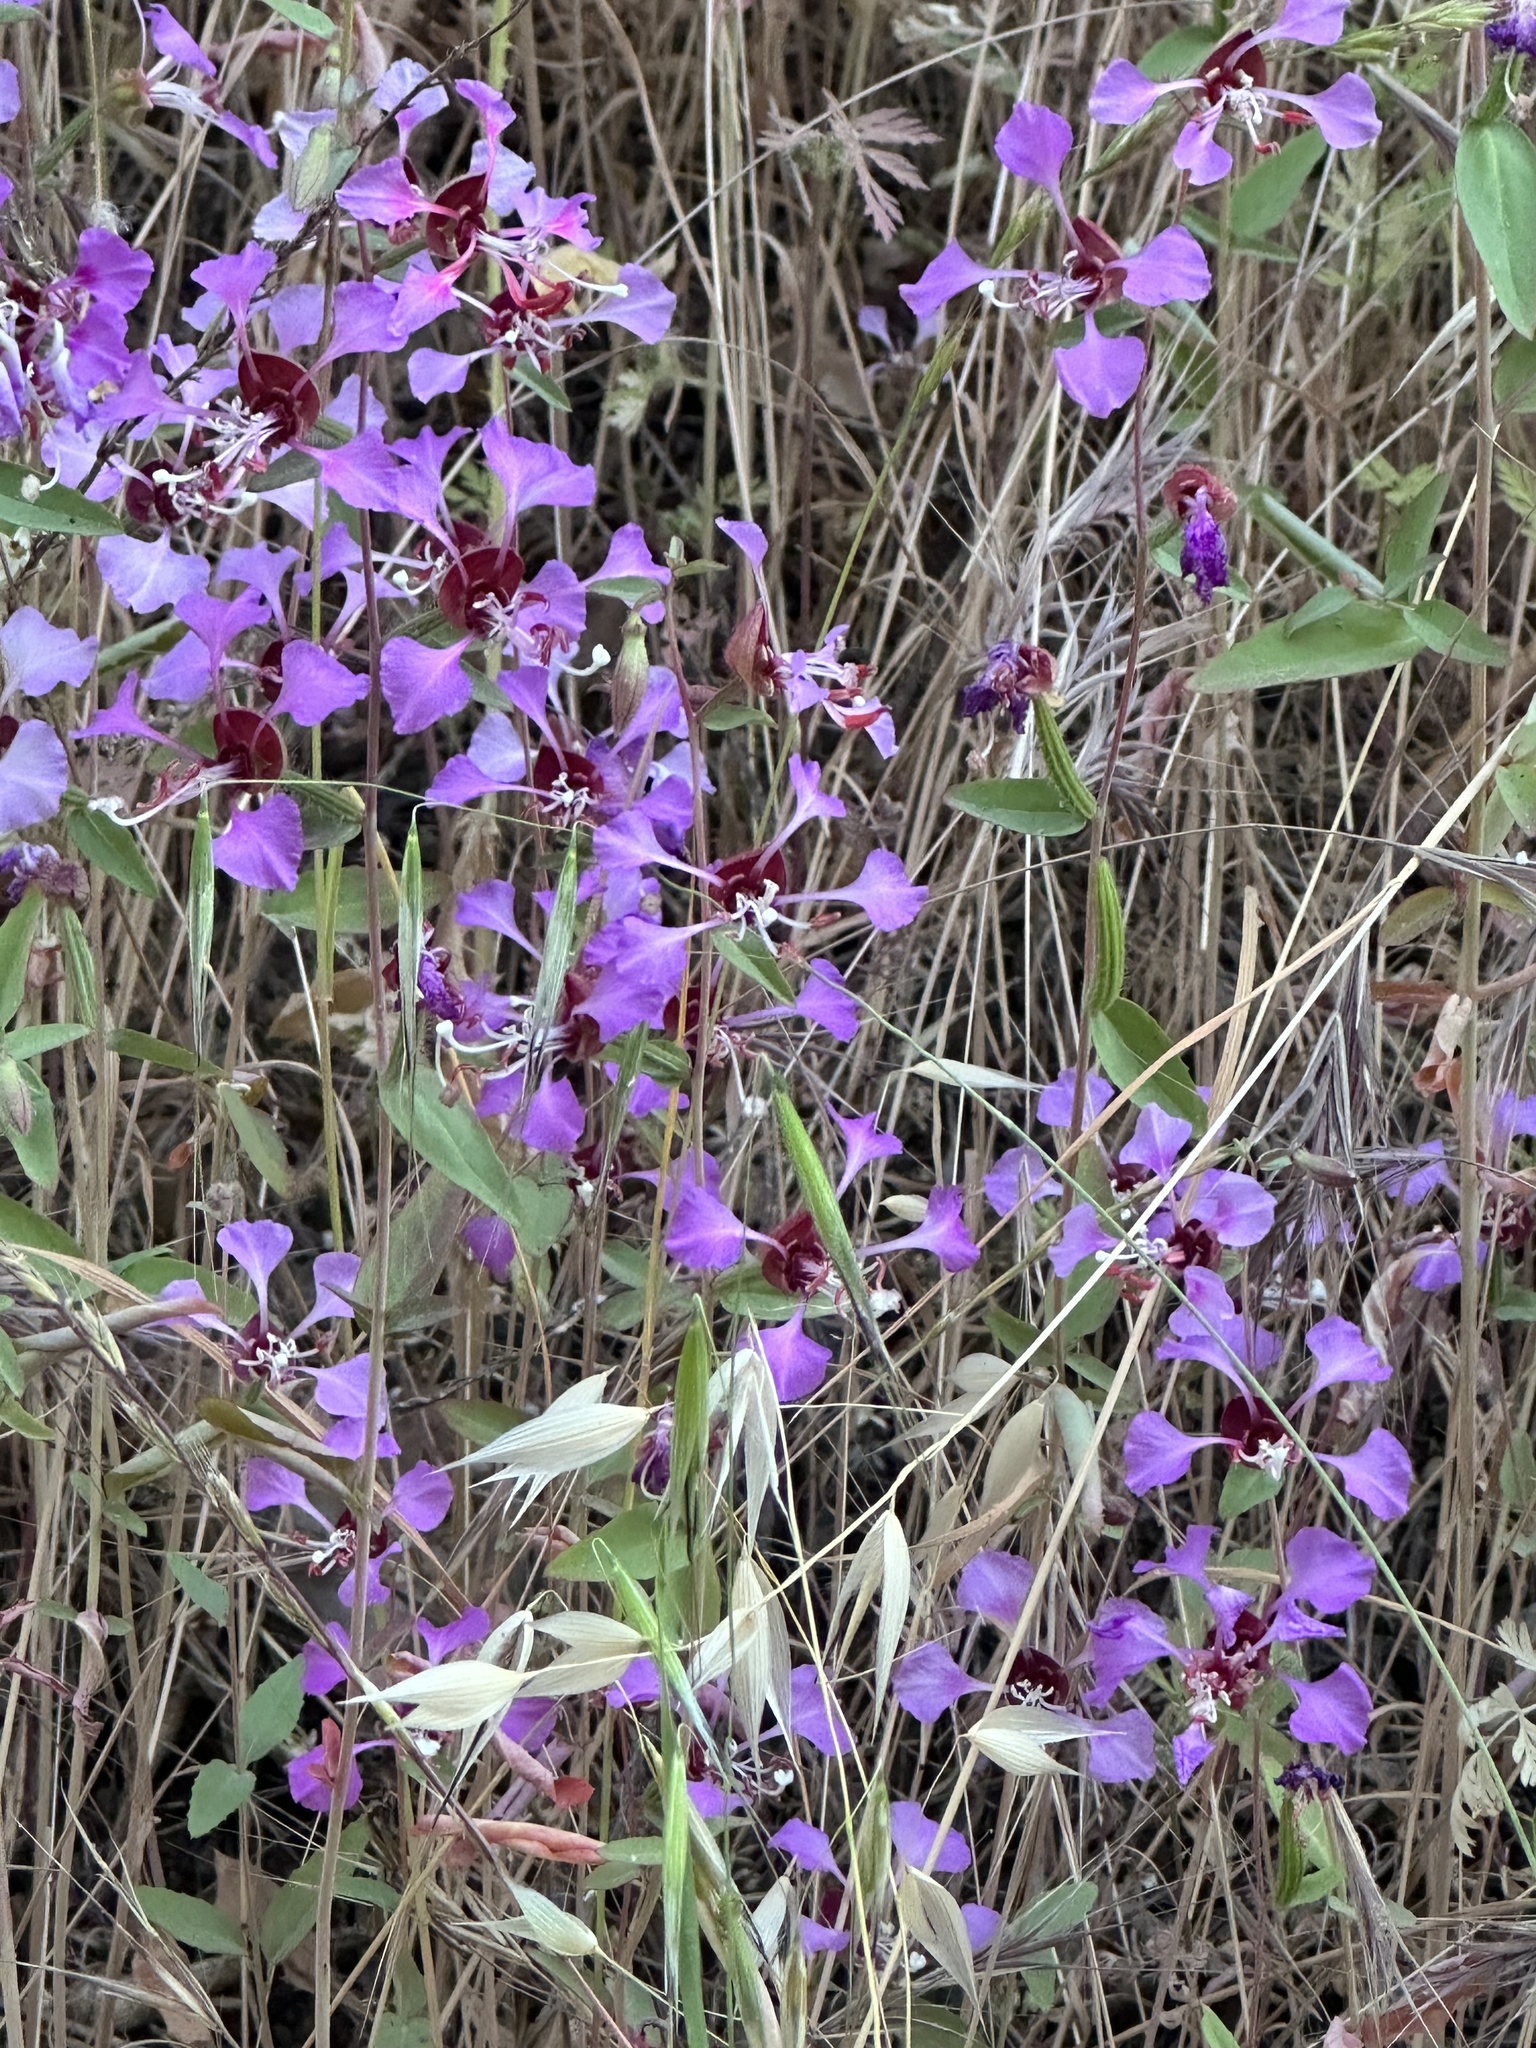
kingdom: Plantae
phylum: Tracheophyta
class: Magnoliopsida
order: Myrtales
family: Onagraceae
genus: Clarkia
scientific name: Clarkia unguiculata
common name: Clarkia
